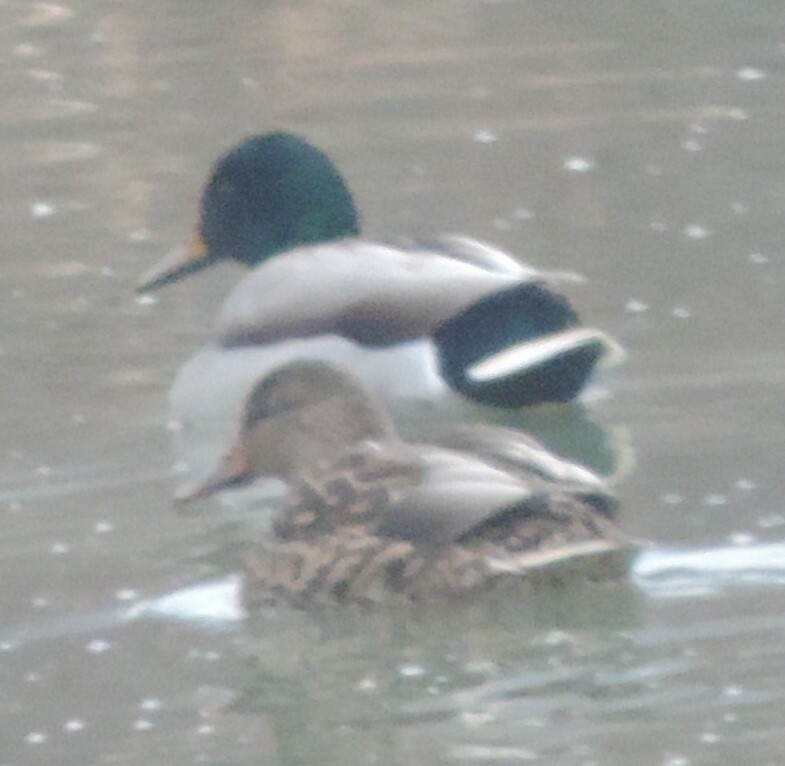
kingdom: Animalia
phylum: Chordata
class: Aves
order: Anseriformes
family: Anatidae
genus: Anas
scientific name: Anas platyrhynchos
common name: Mallard
